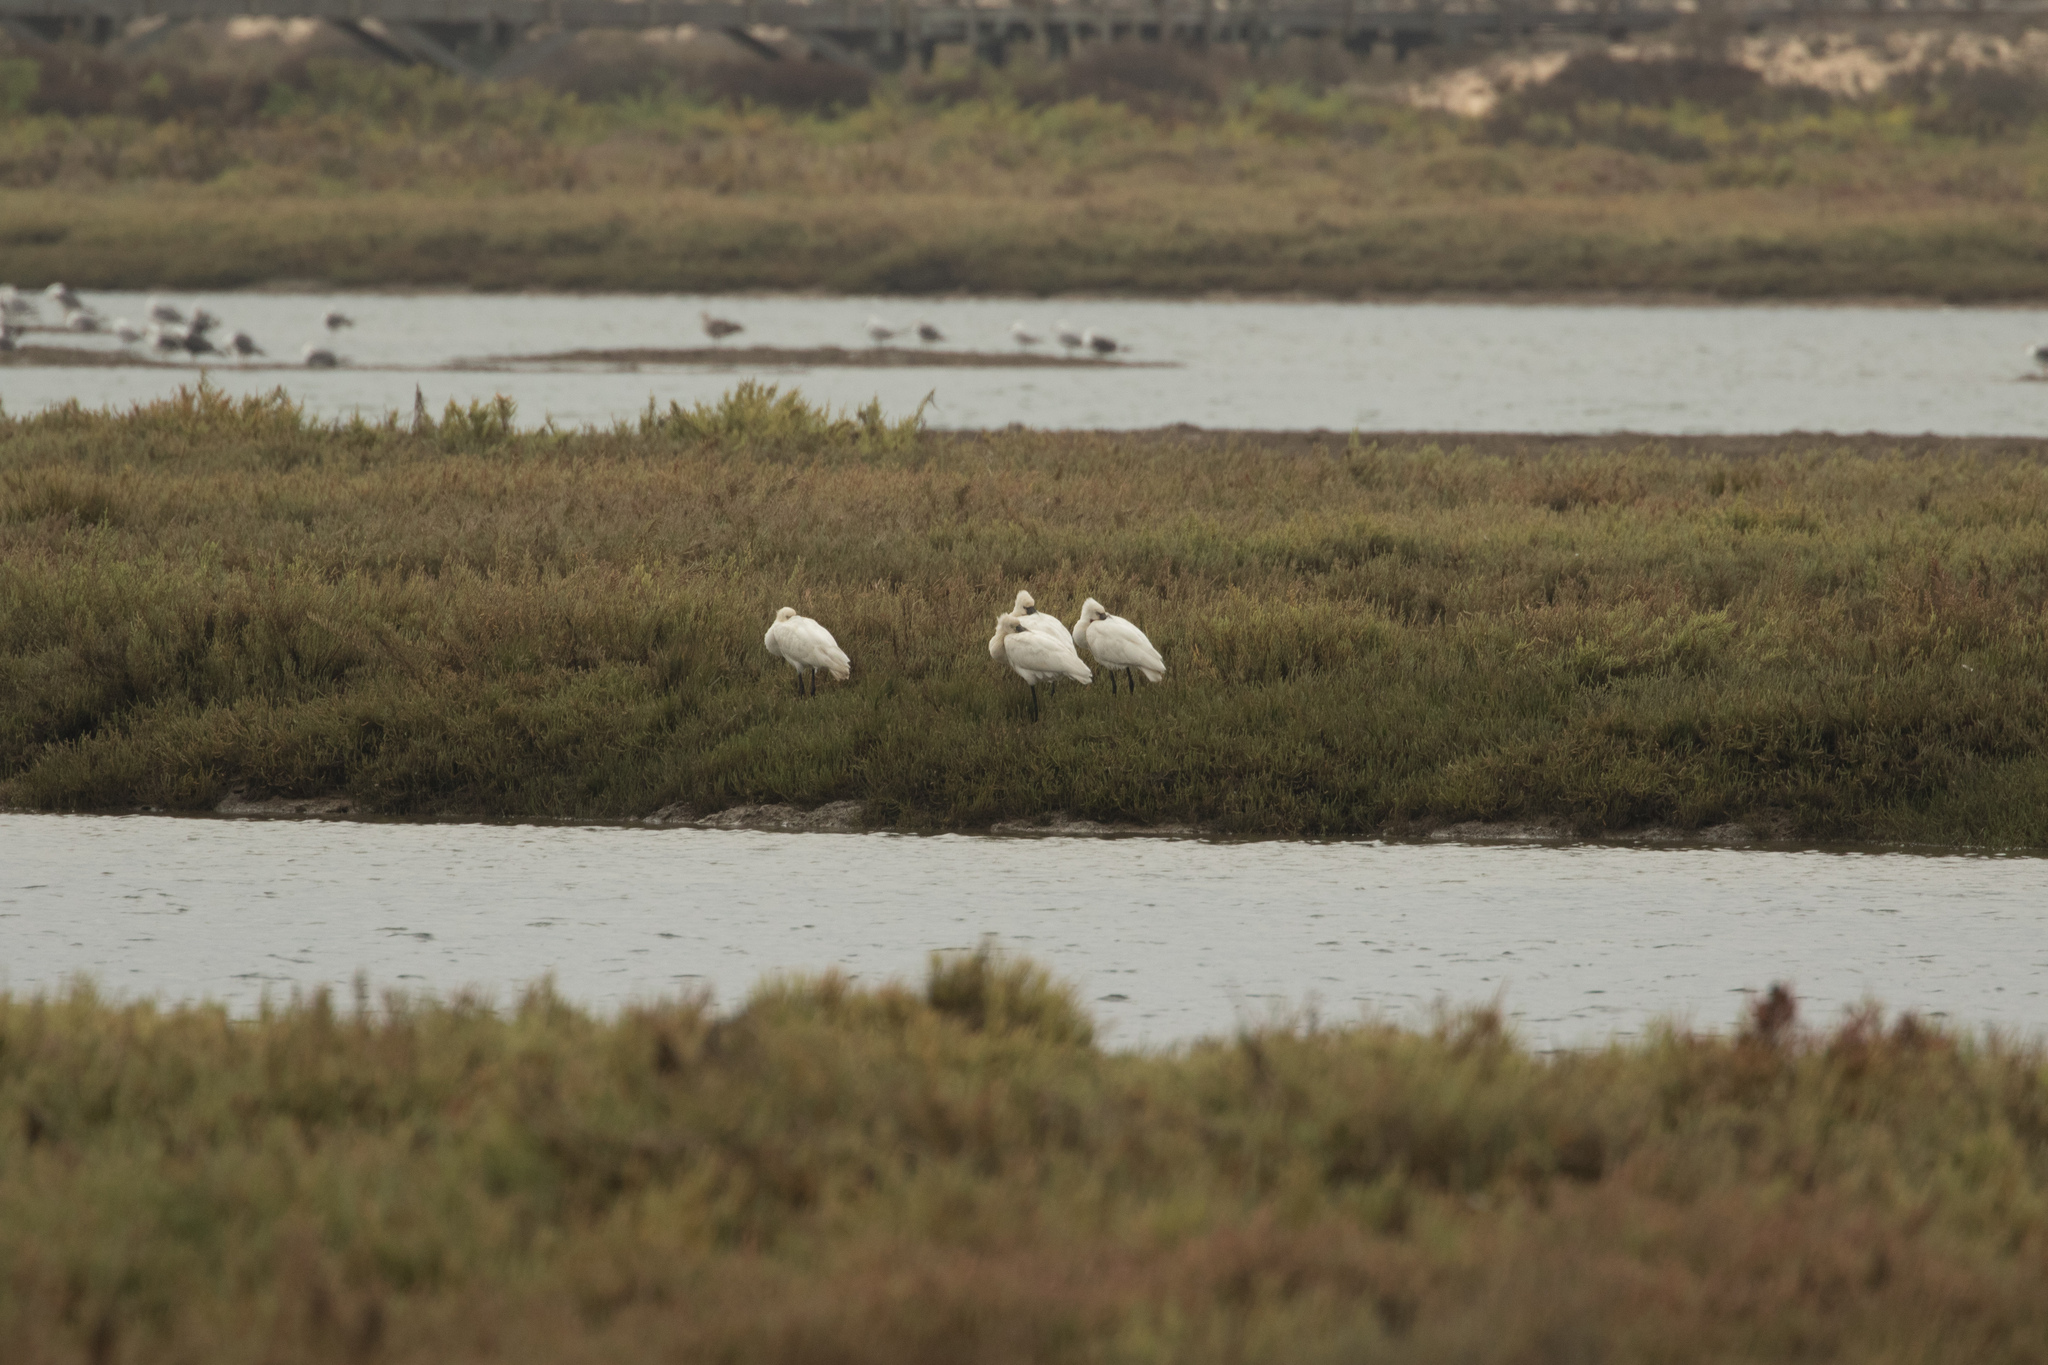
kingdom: Animalia
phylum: Chordata
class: Aves
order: Pelecaniformes
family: Threskiornithidae
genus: Platalea
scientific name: Platalea leucorodia
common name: Eurasian spoonbill
